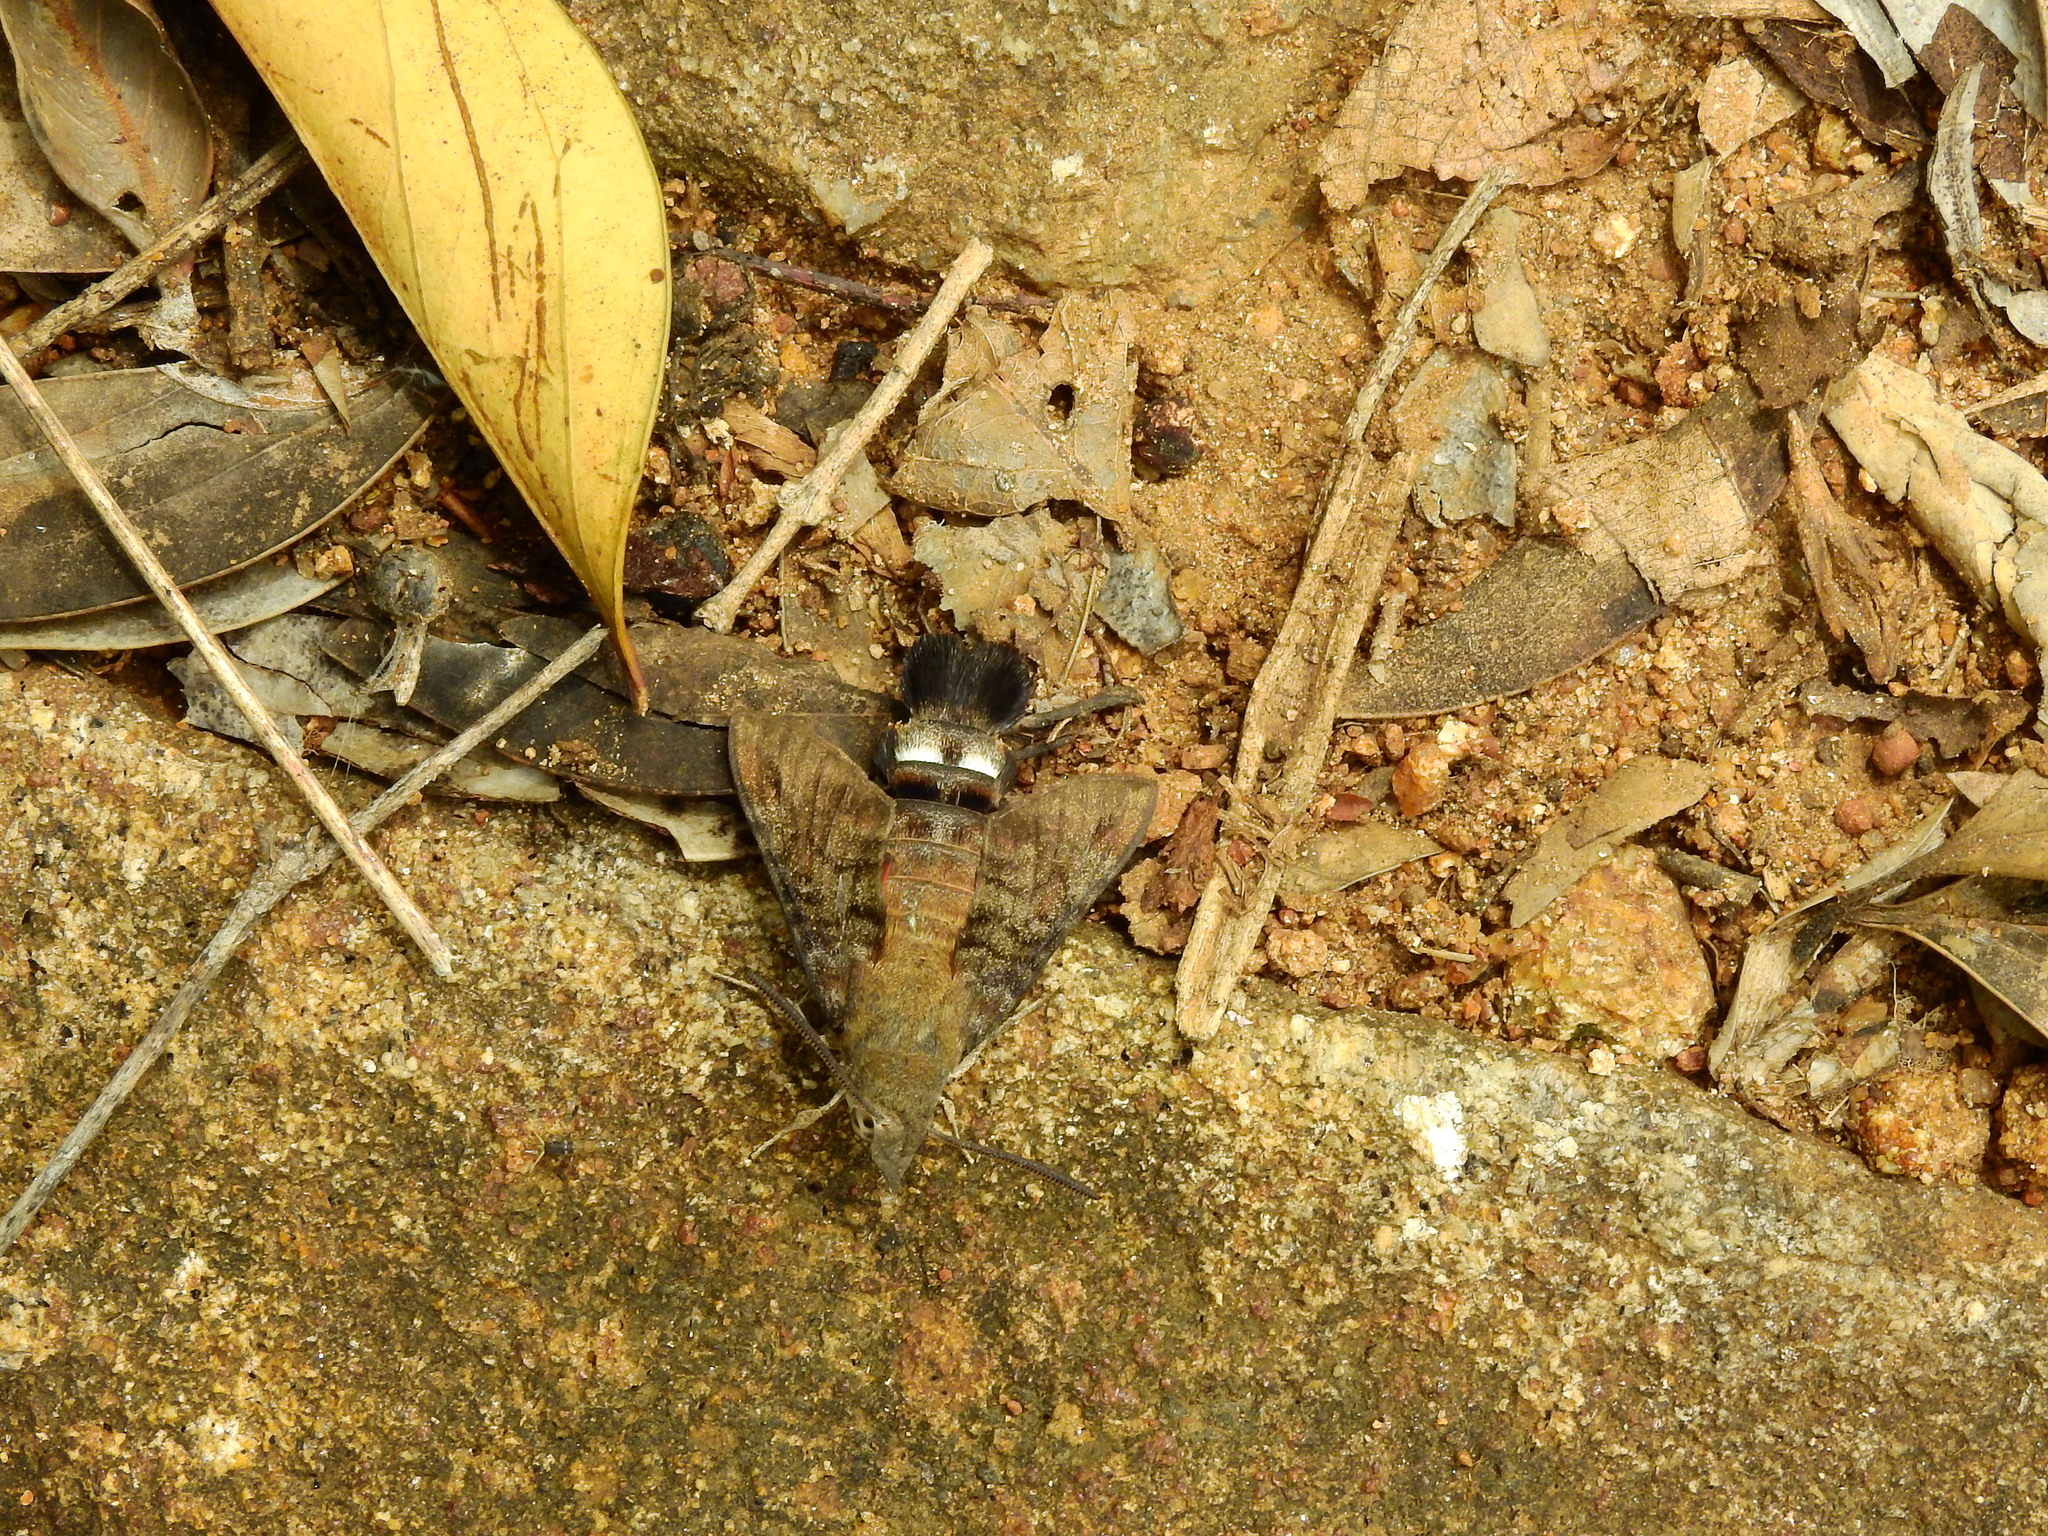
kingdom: Animalia
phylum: Arthropoda
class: Insecta
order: Lepidoptera
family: Sphingidae
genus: Macroglossum
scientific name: Macroglossum gyrans
